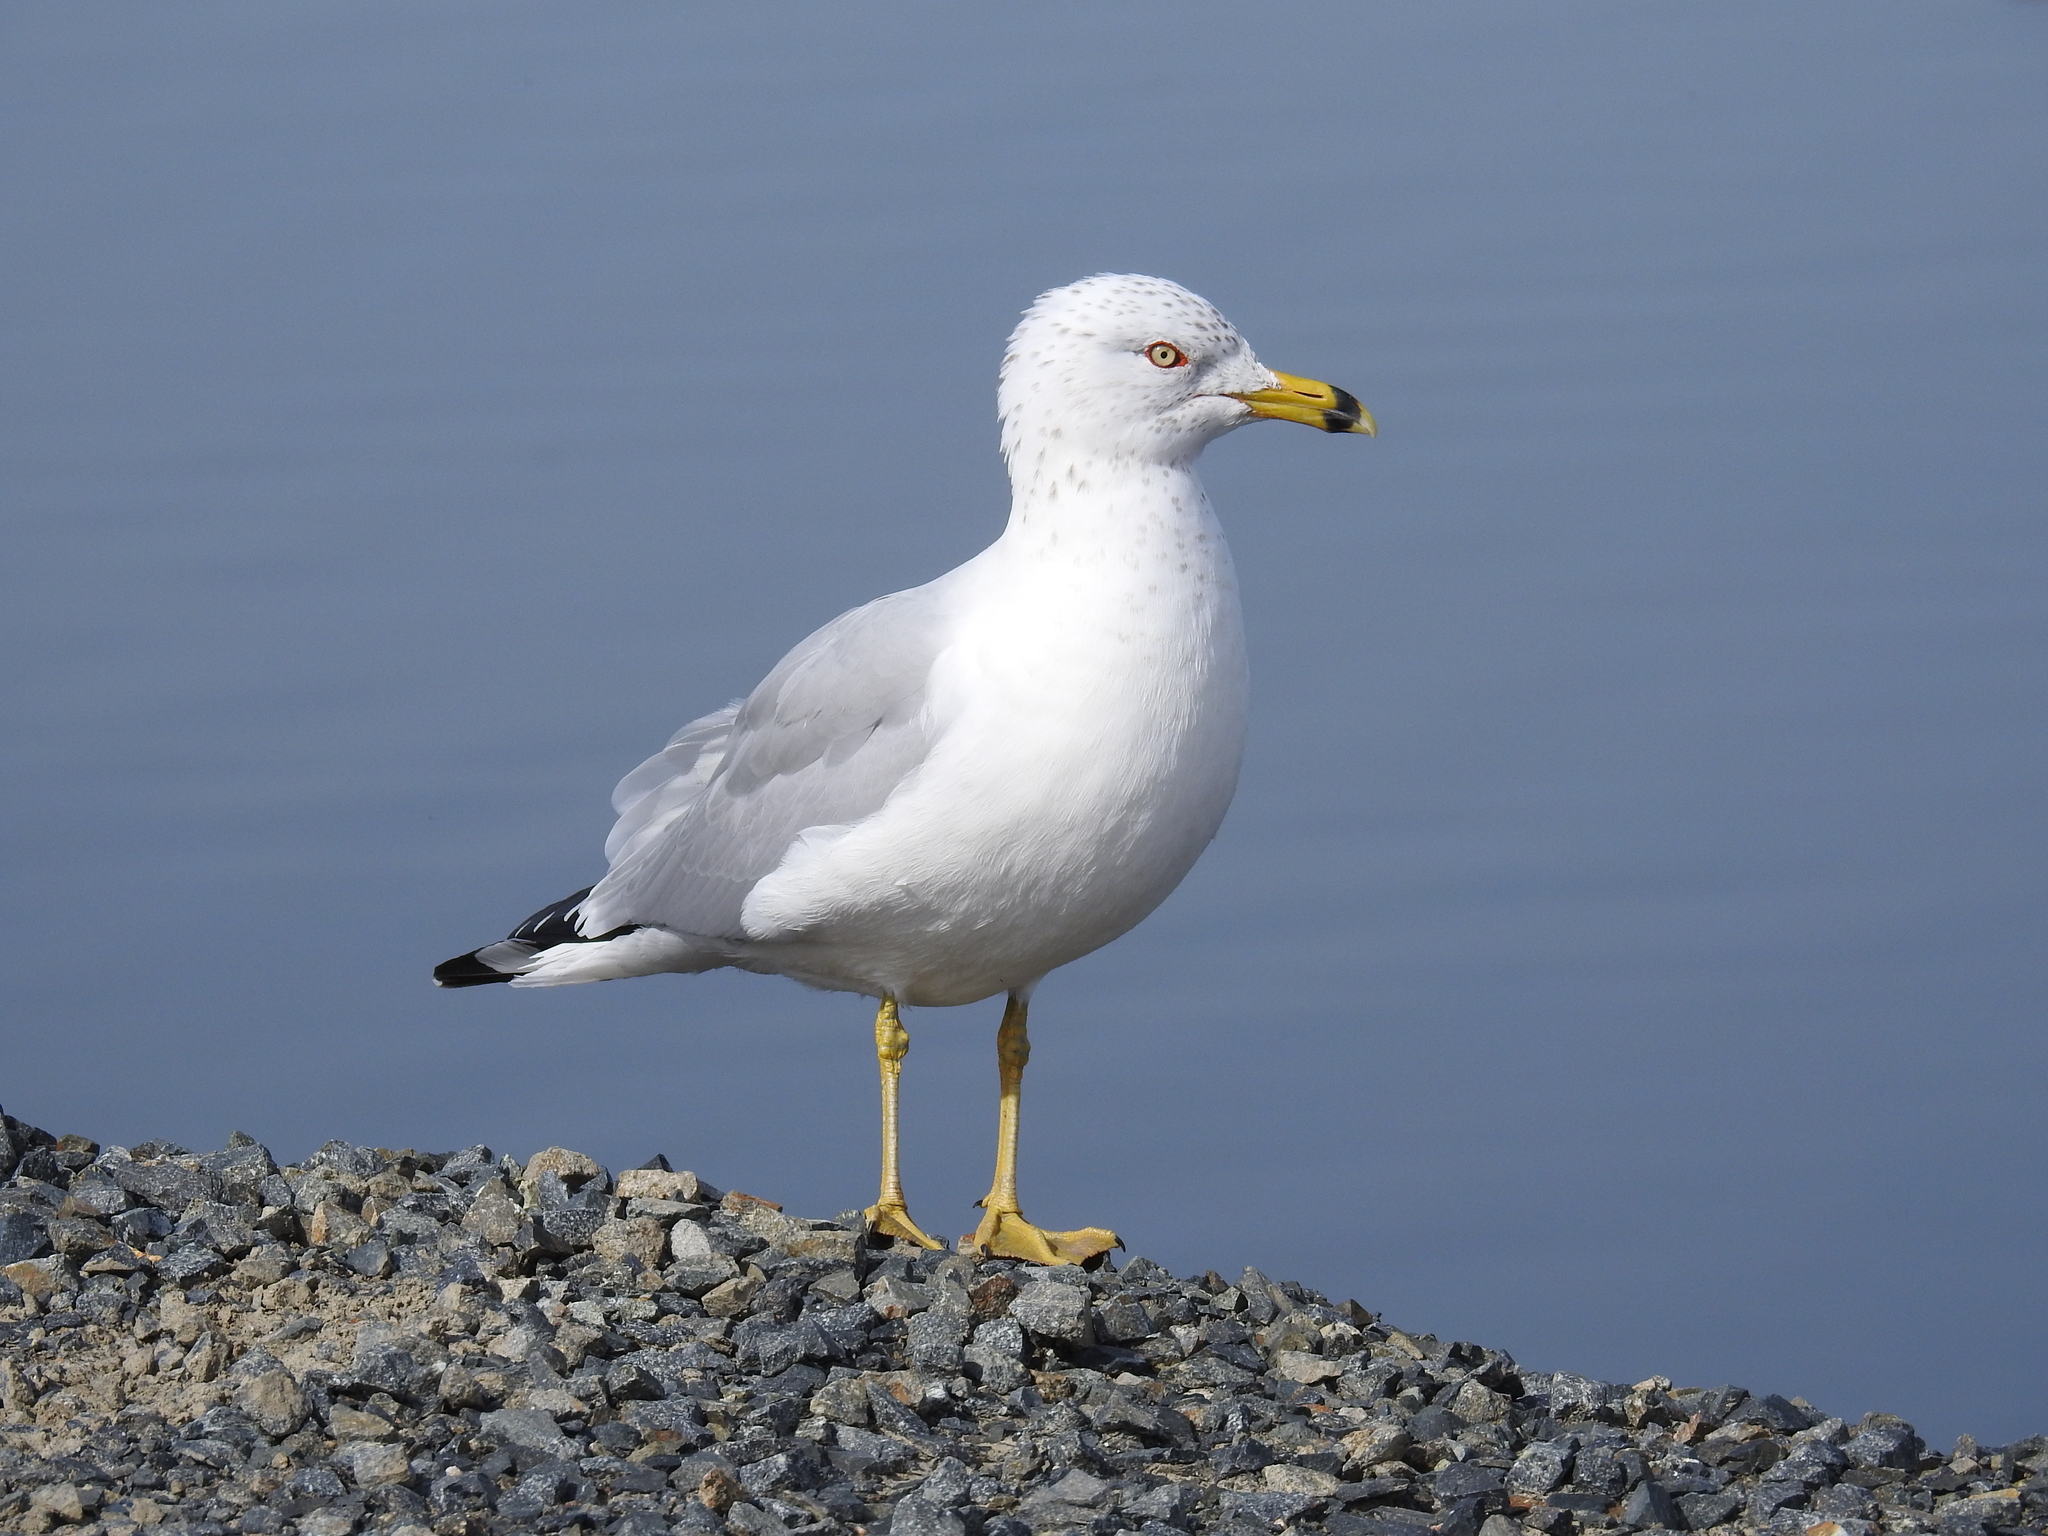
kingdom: Animalia
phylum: Chordata
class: Aves
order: Charadriiformes
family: Laridae
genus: Larus
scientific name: Larus delawarensis
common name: Ring-billed gull
